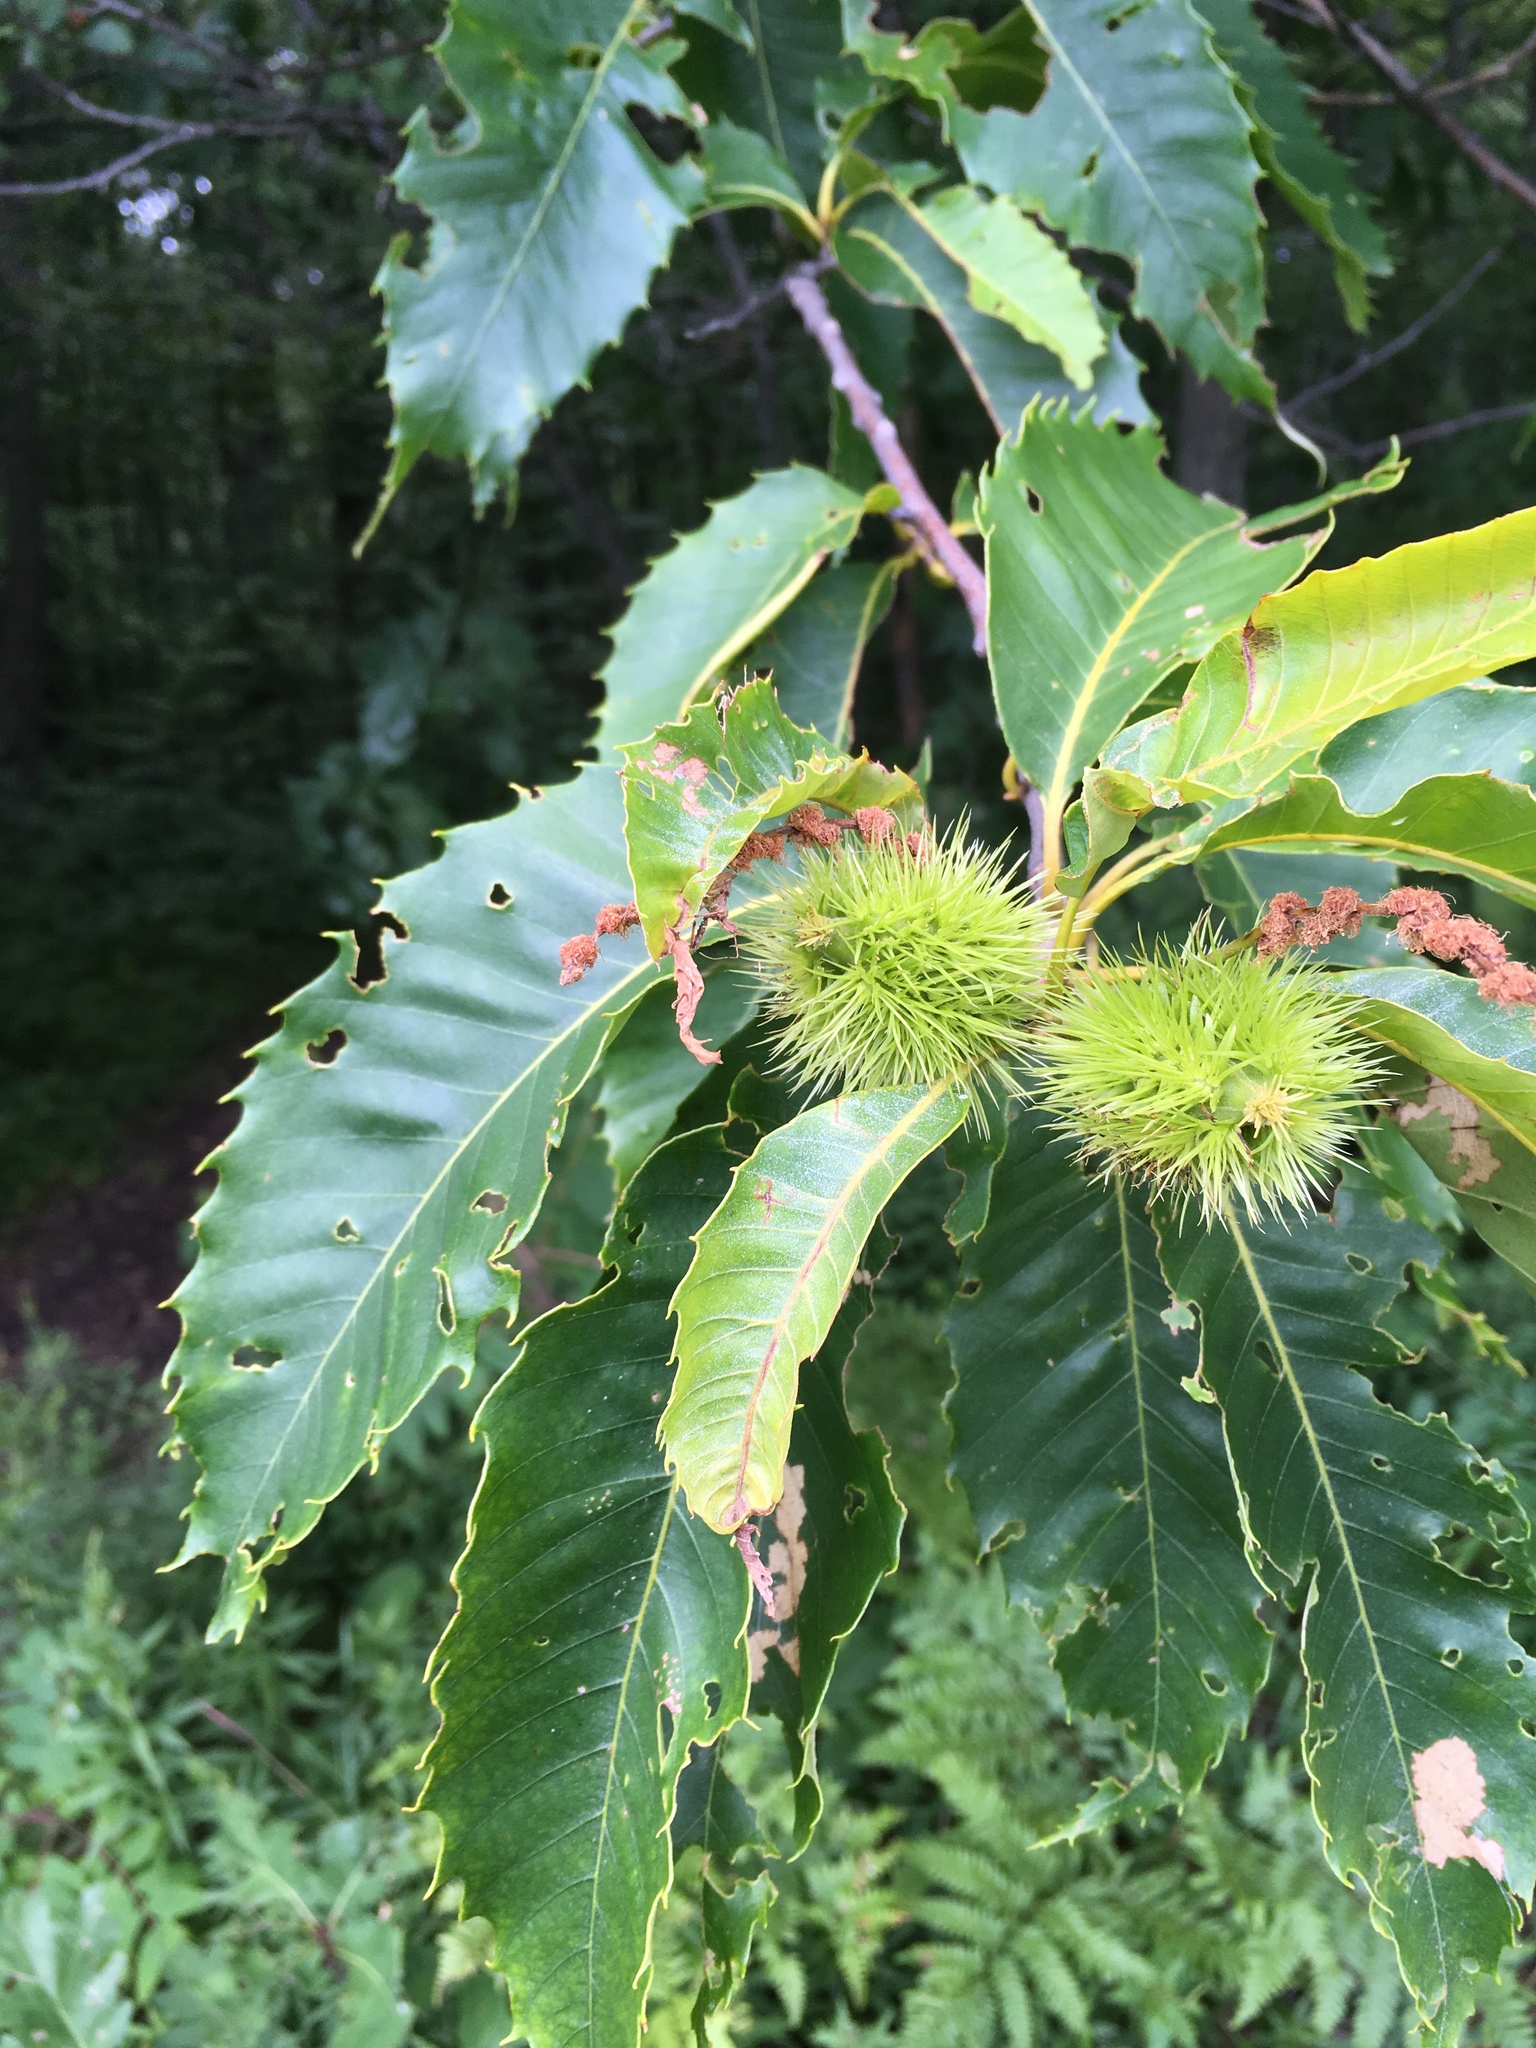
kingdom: Plantae
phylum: Tracheophyta
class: Magnoliopsida
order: Fagales
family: Fagaceae
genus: Castanea
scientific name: Castanea mollissima
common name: Chinese chestnut
